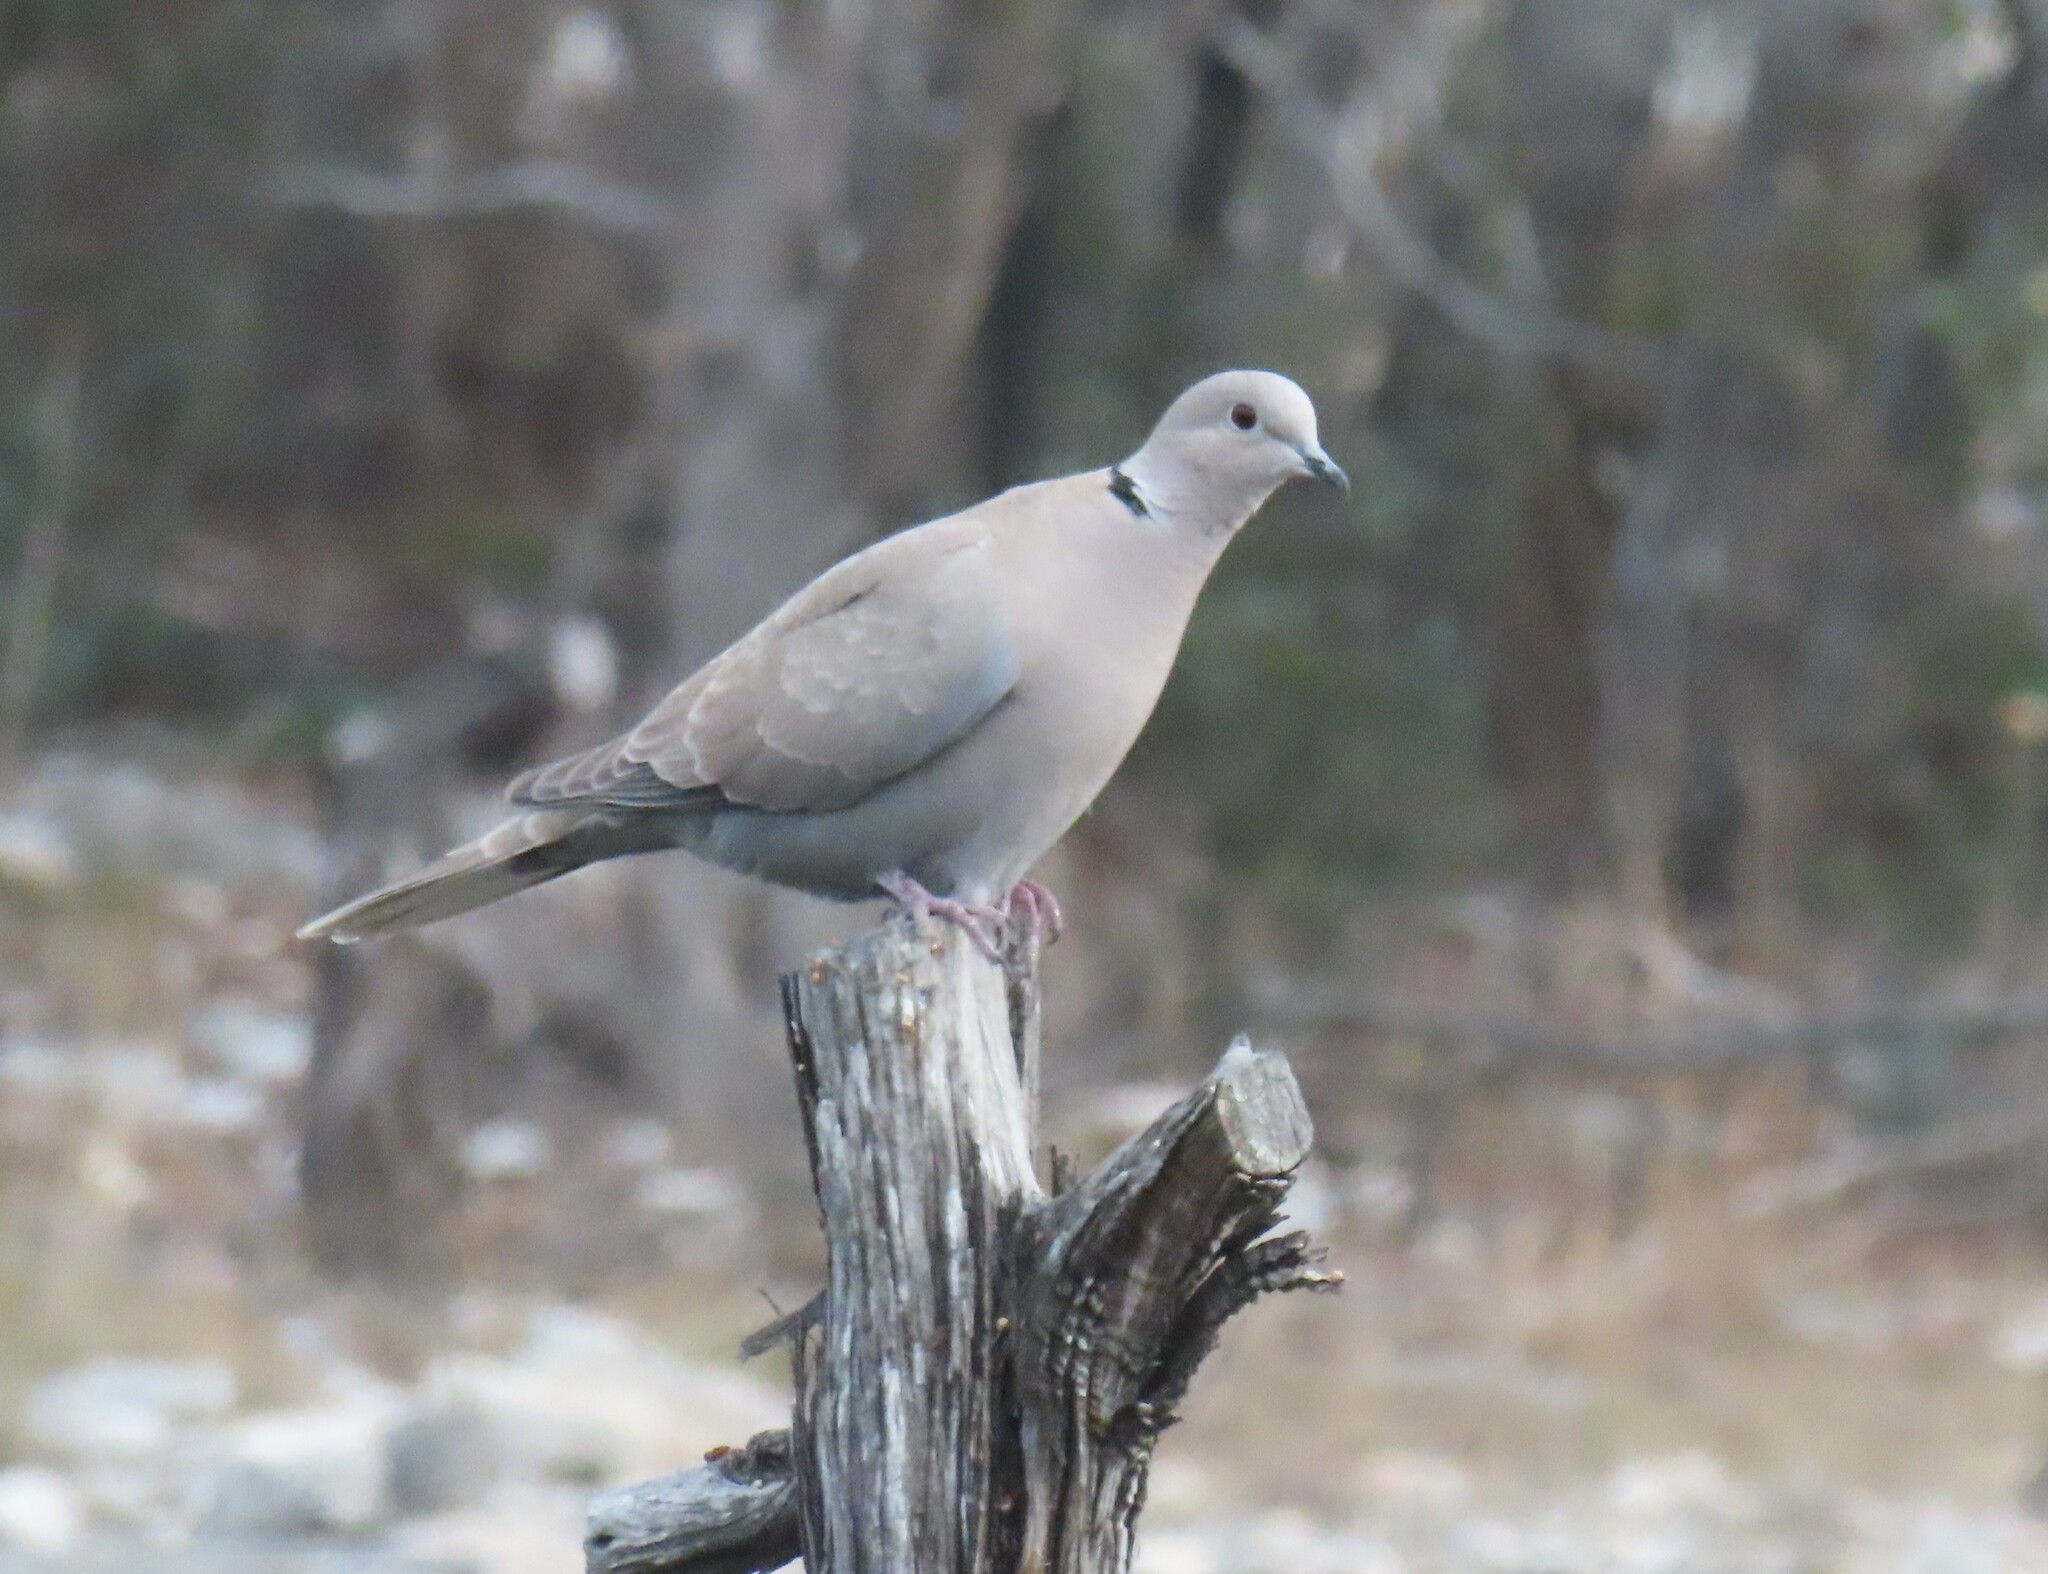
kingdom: Animalia
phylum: Chordata
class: Aves
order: Columbiformes
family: Columbidae
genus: Streptopelia
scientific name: Streptopelia decaocto
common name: Eurasian collared dove
